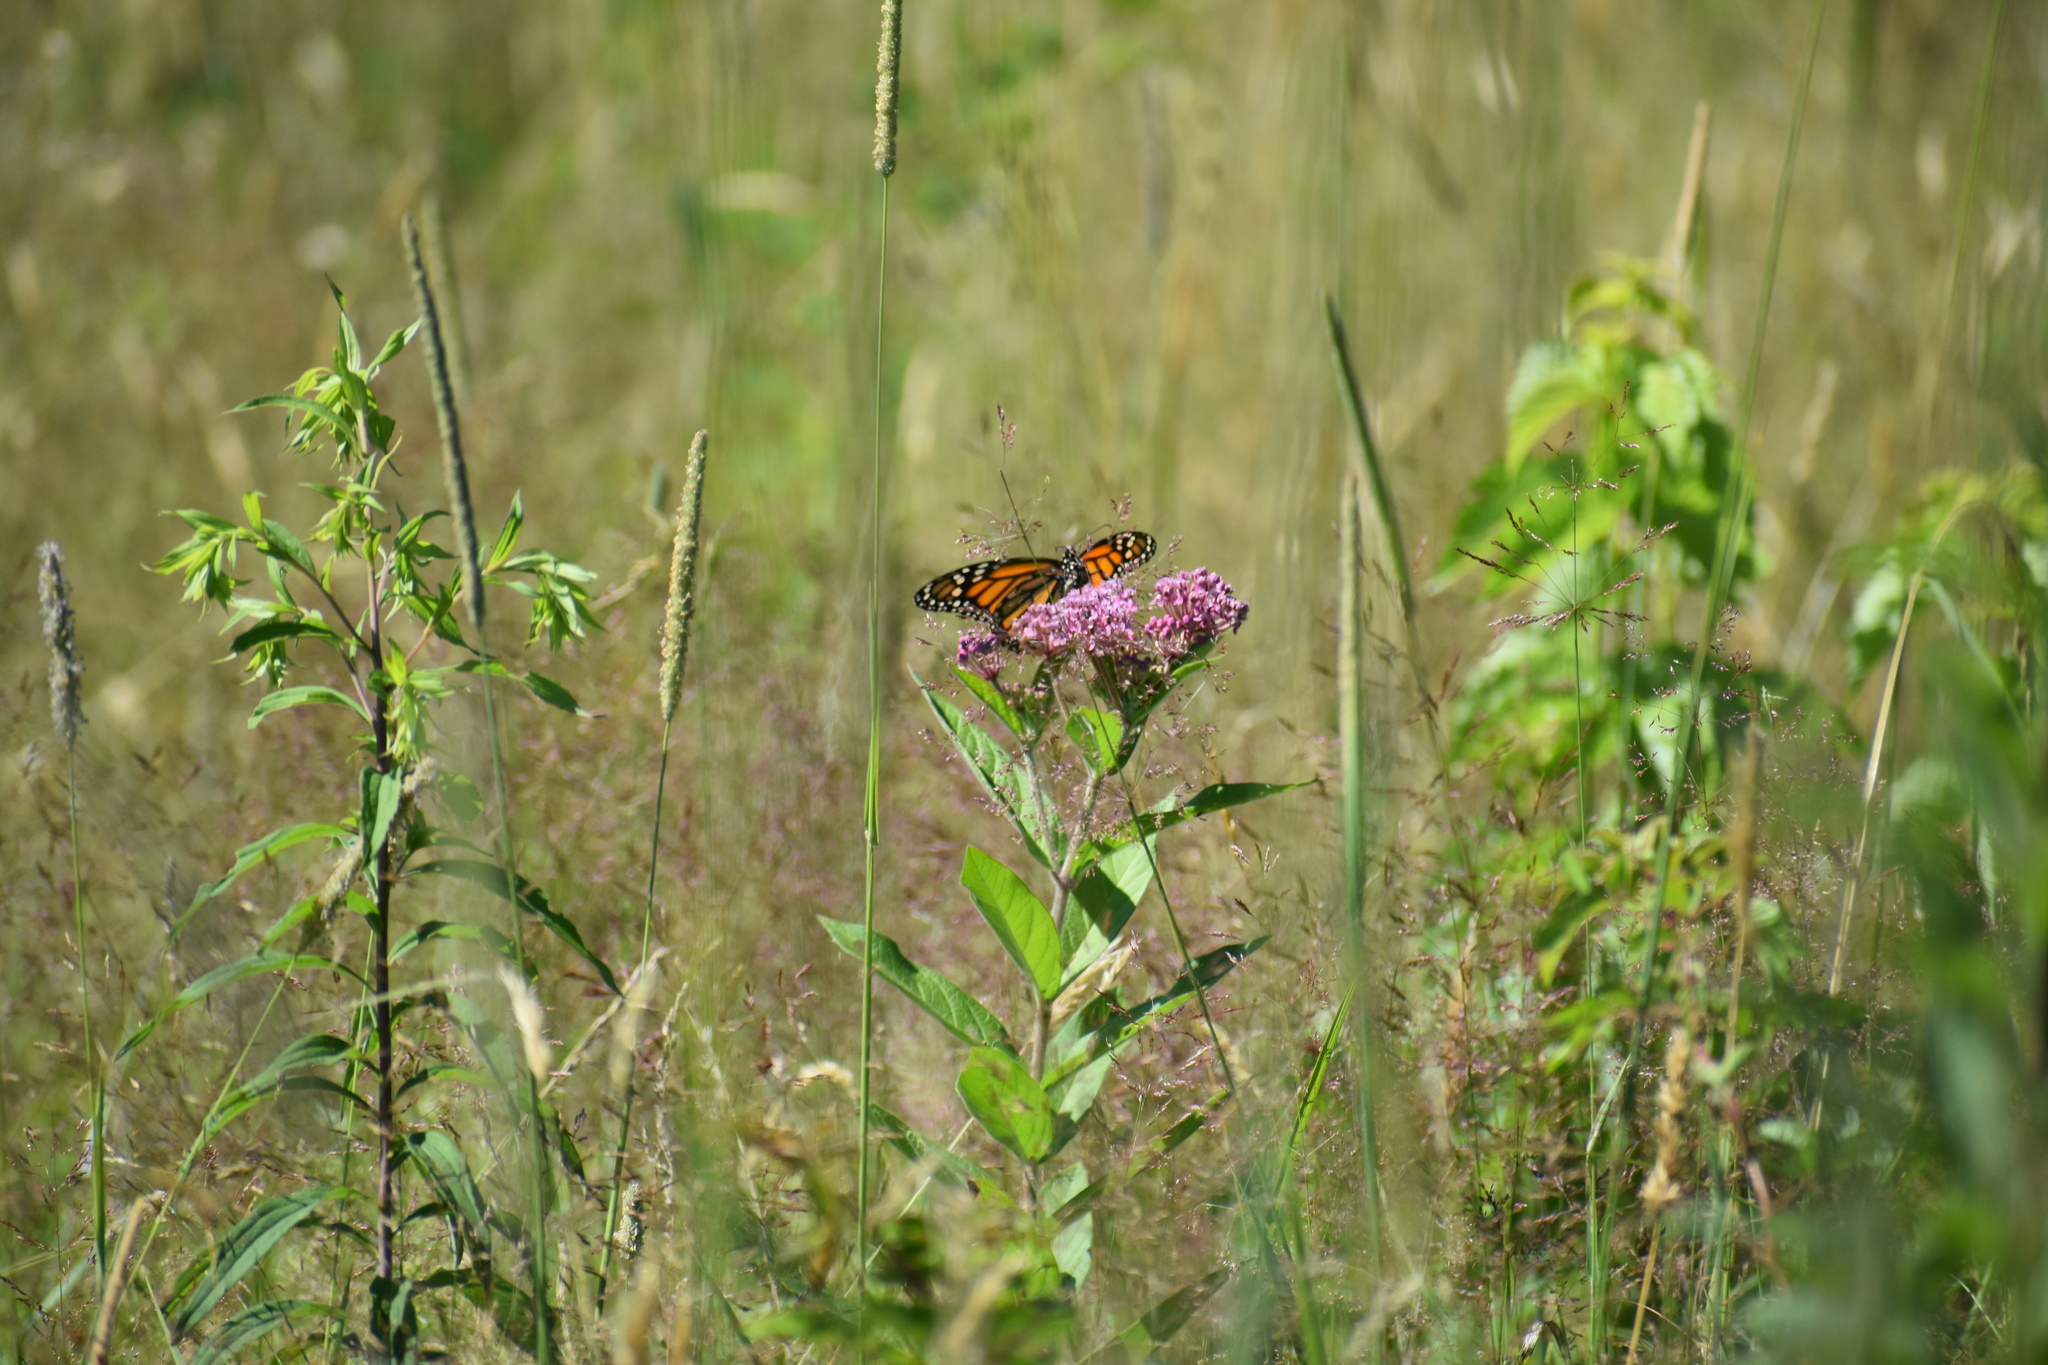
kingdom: Animalia
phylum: Arthropoda
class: Insecta
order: Lepidoptera
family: Nymphalidae
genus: Danaus
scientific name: Danaus plexippus
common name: Monarch
